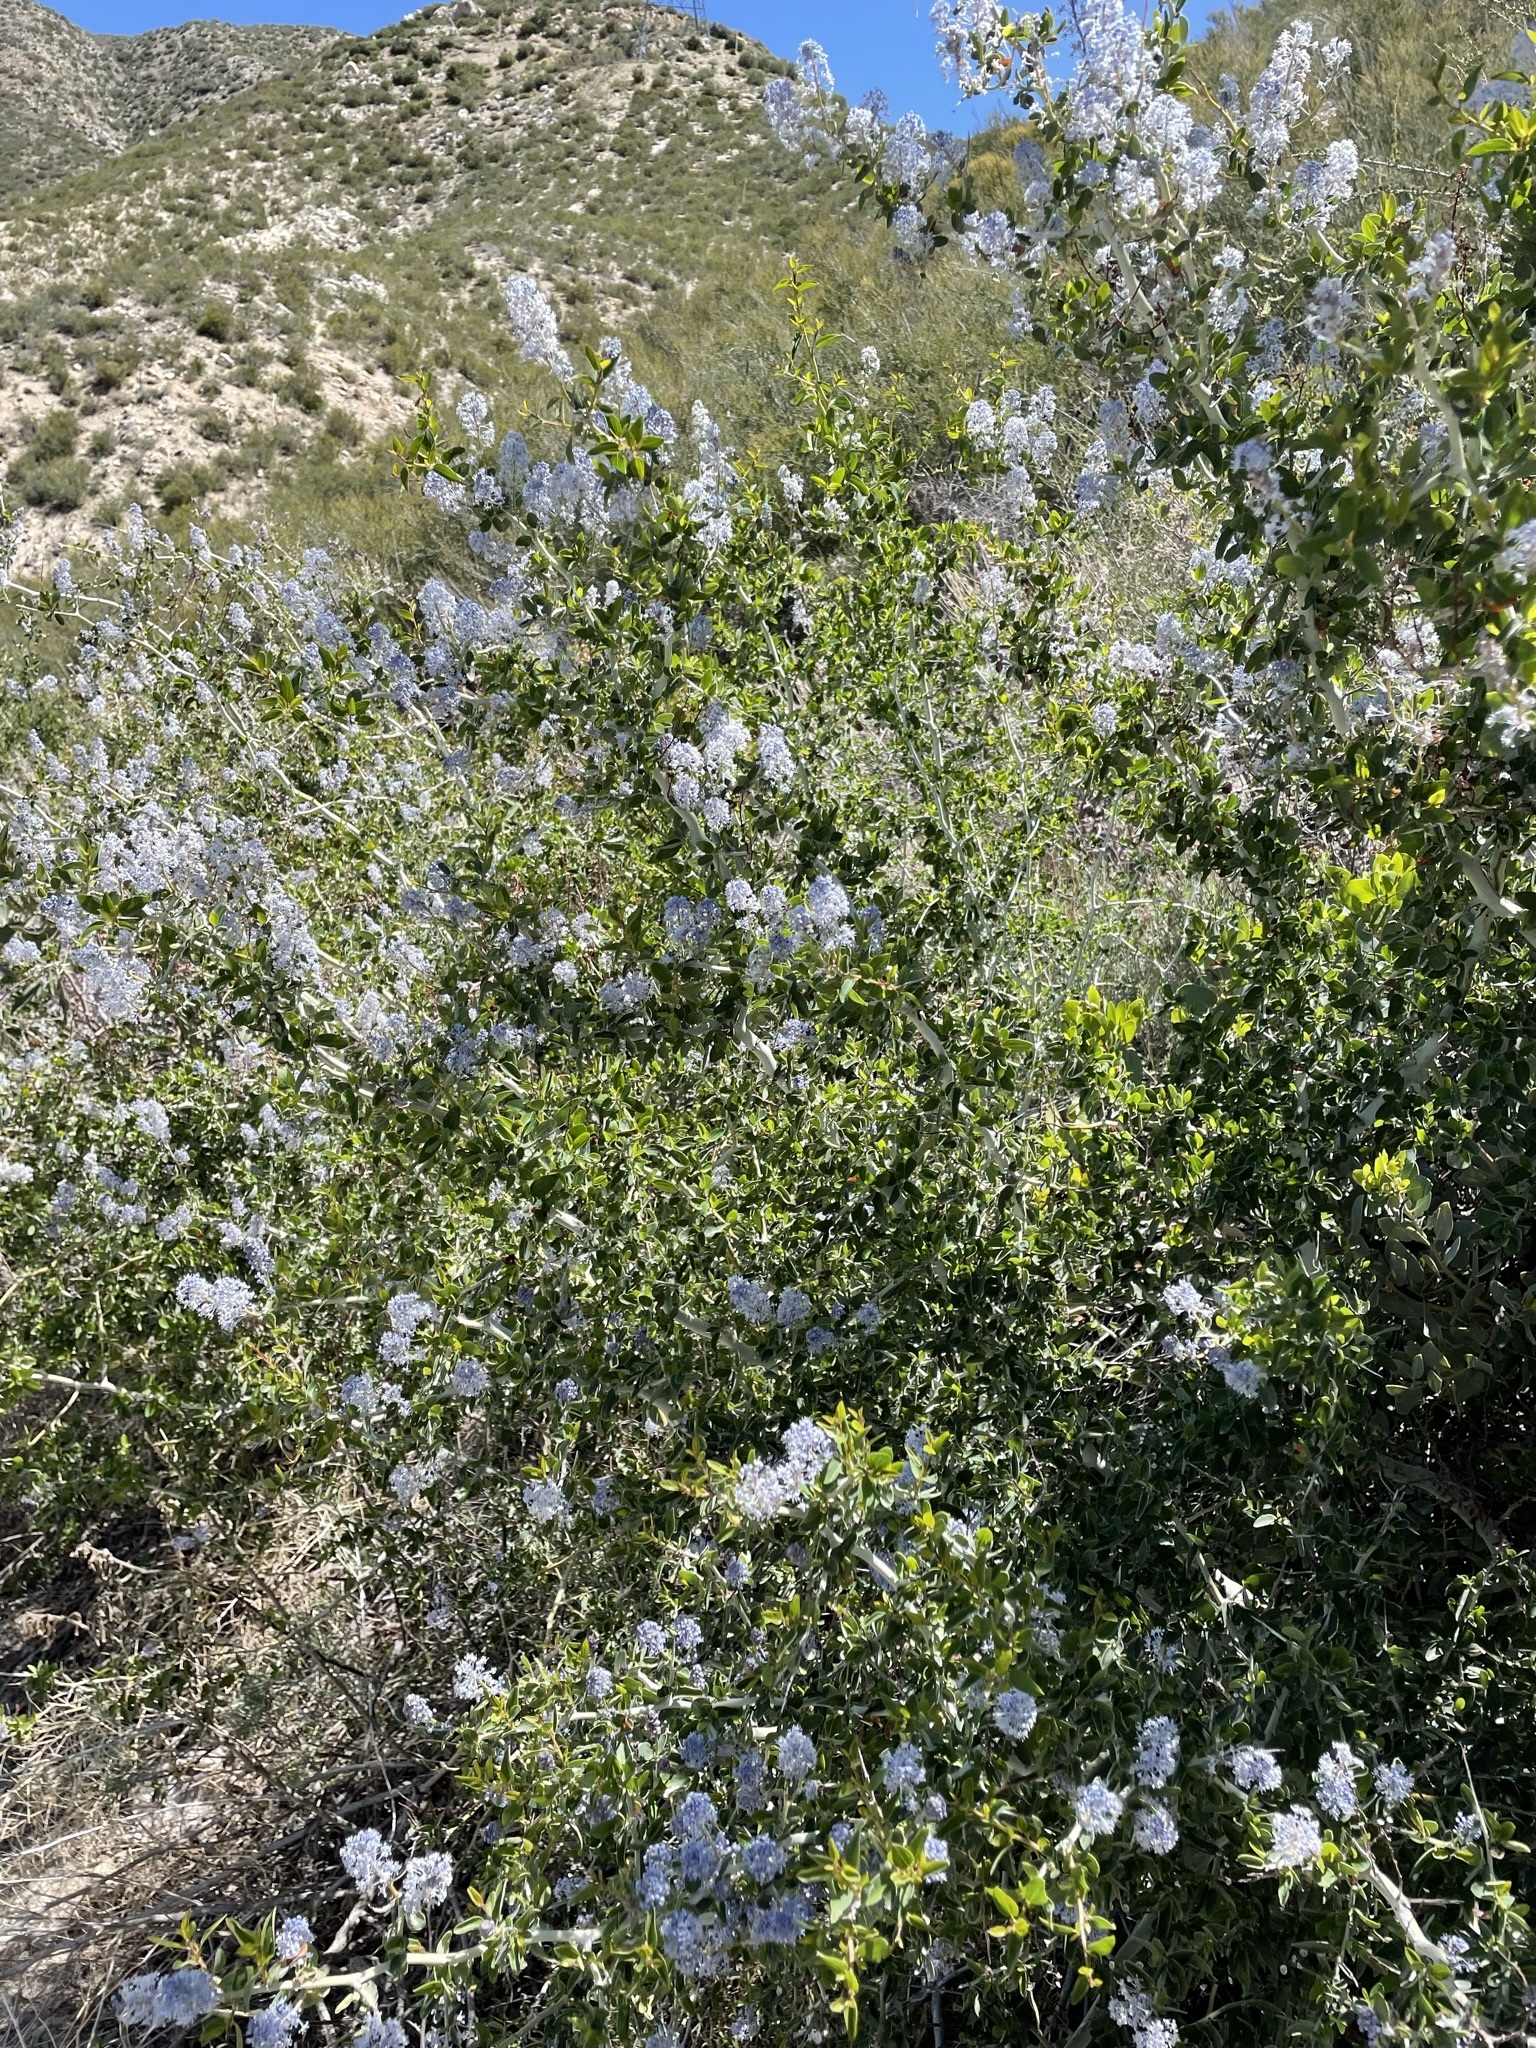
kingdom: Plantae
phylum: Tracheophyta
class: Magnoliopsida
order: Rosales
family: Rhamnaceae
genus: Ceanothus
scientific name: Ceanothus leucodermis
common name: Chaparral whitethorn
